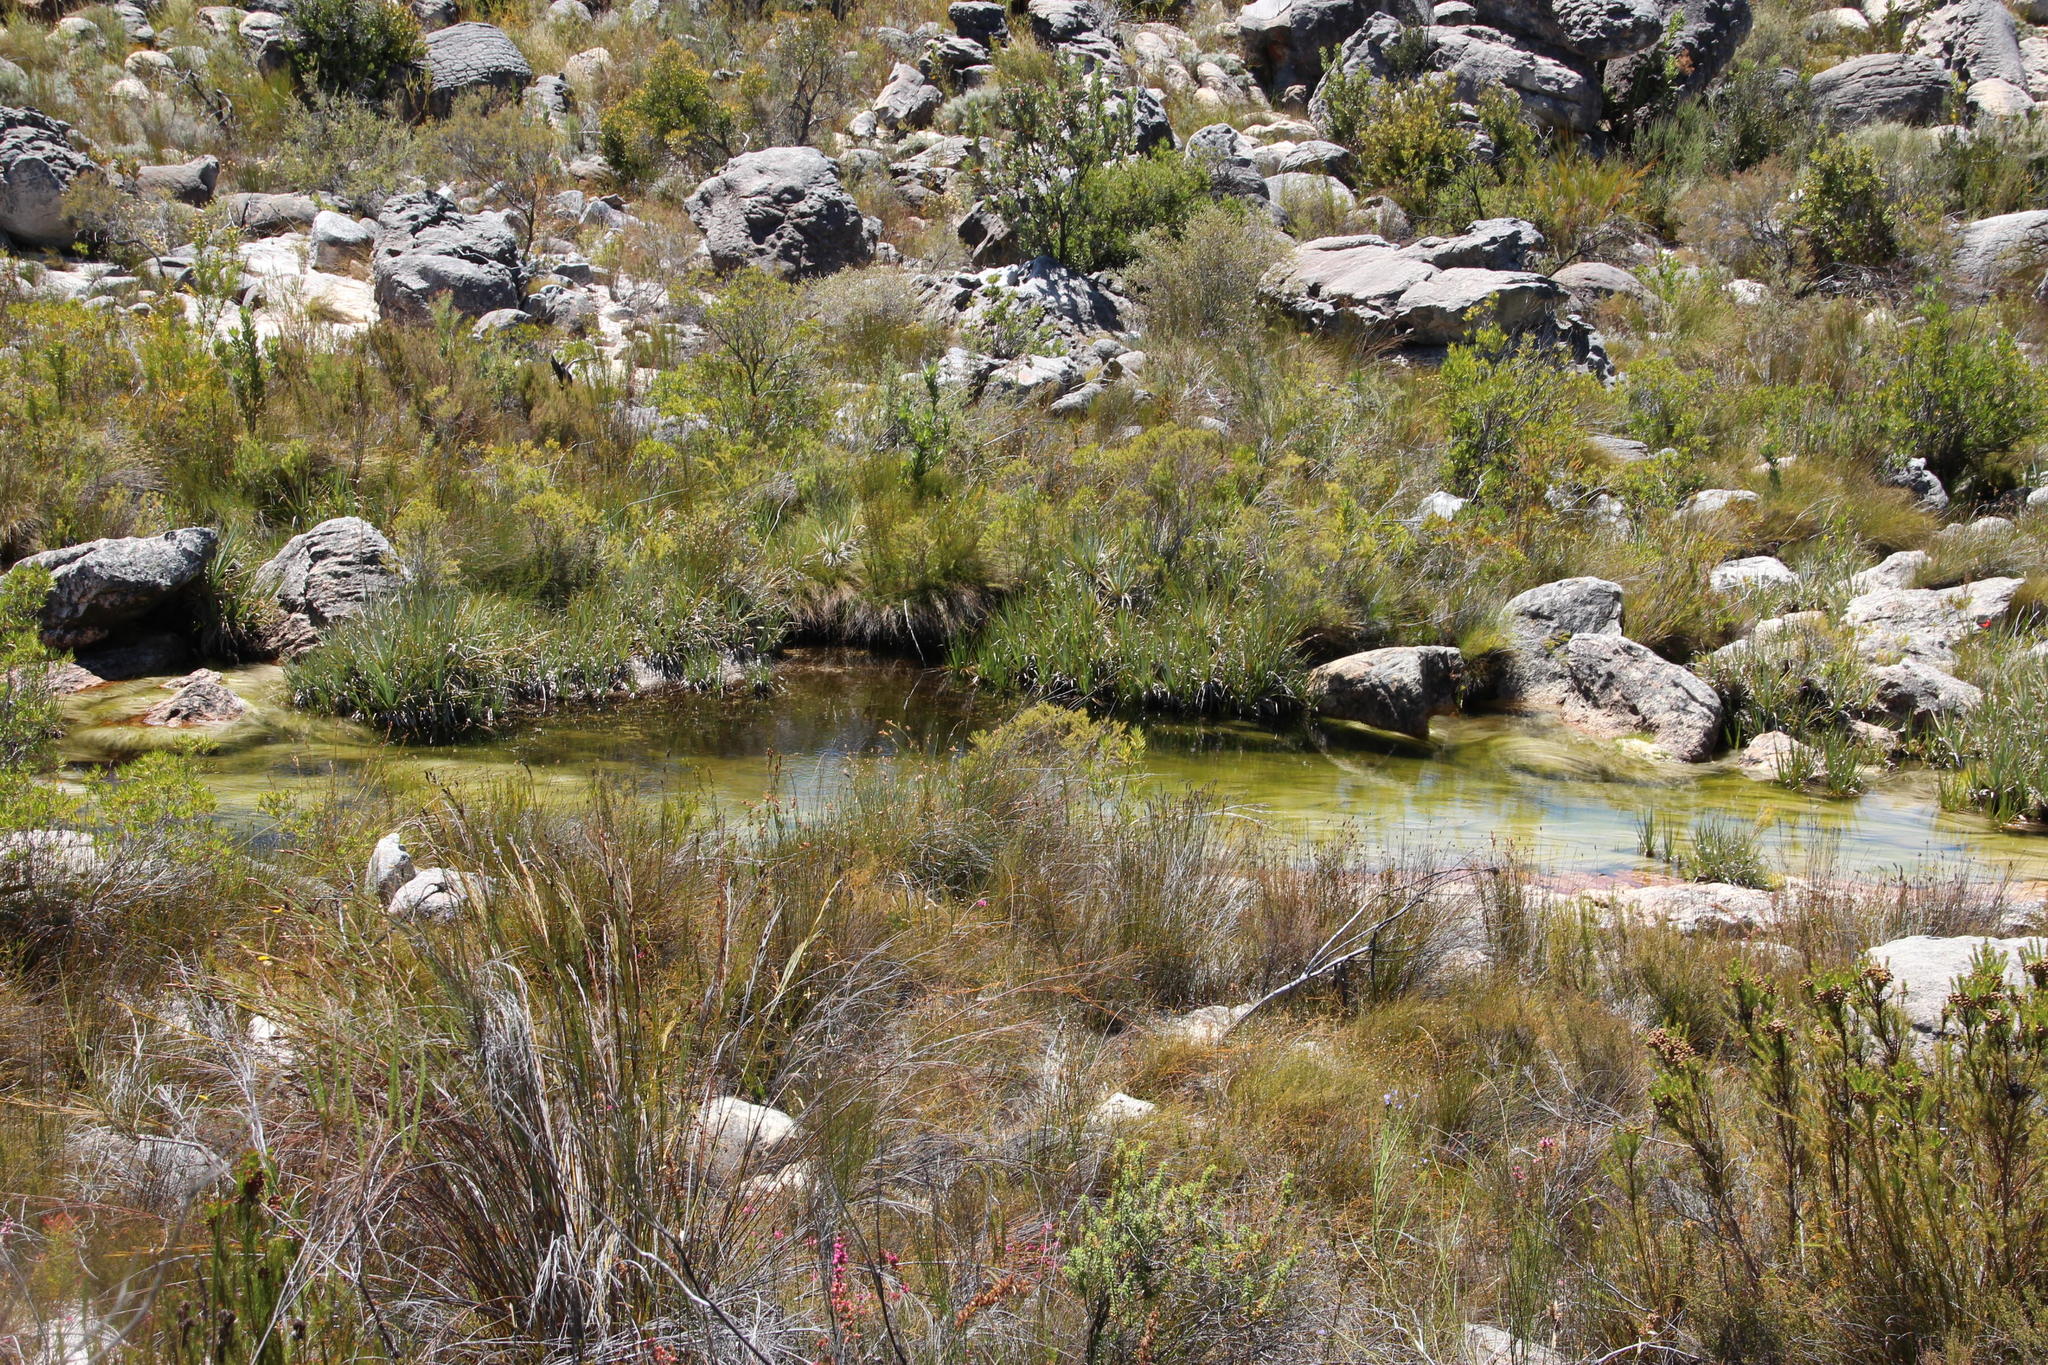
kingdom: Plantae
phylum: Tracheophyta
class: Liliopsida
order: Poales
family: Cyperaceae
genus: Isolepis
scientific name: Isolepis digitata
